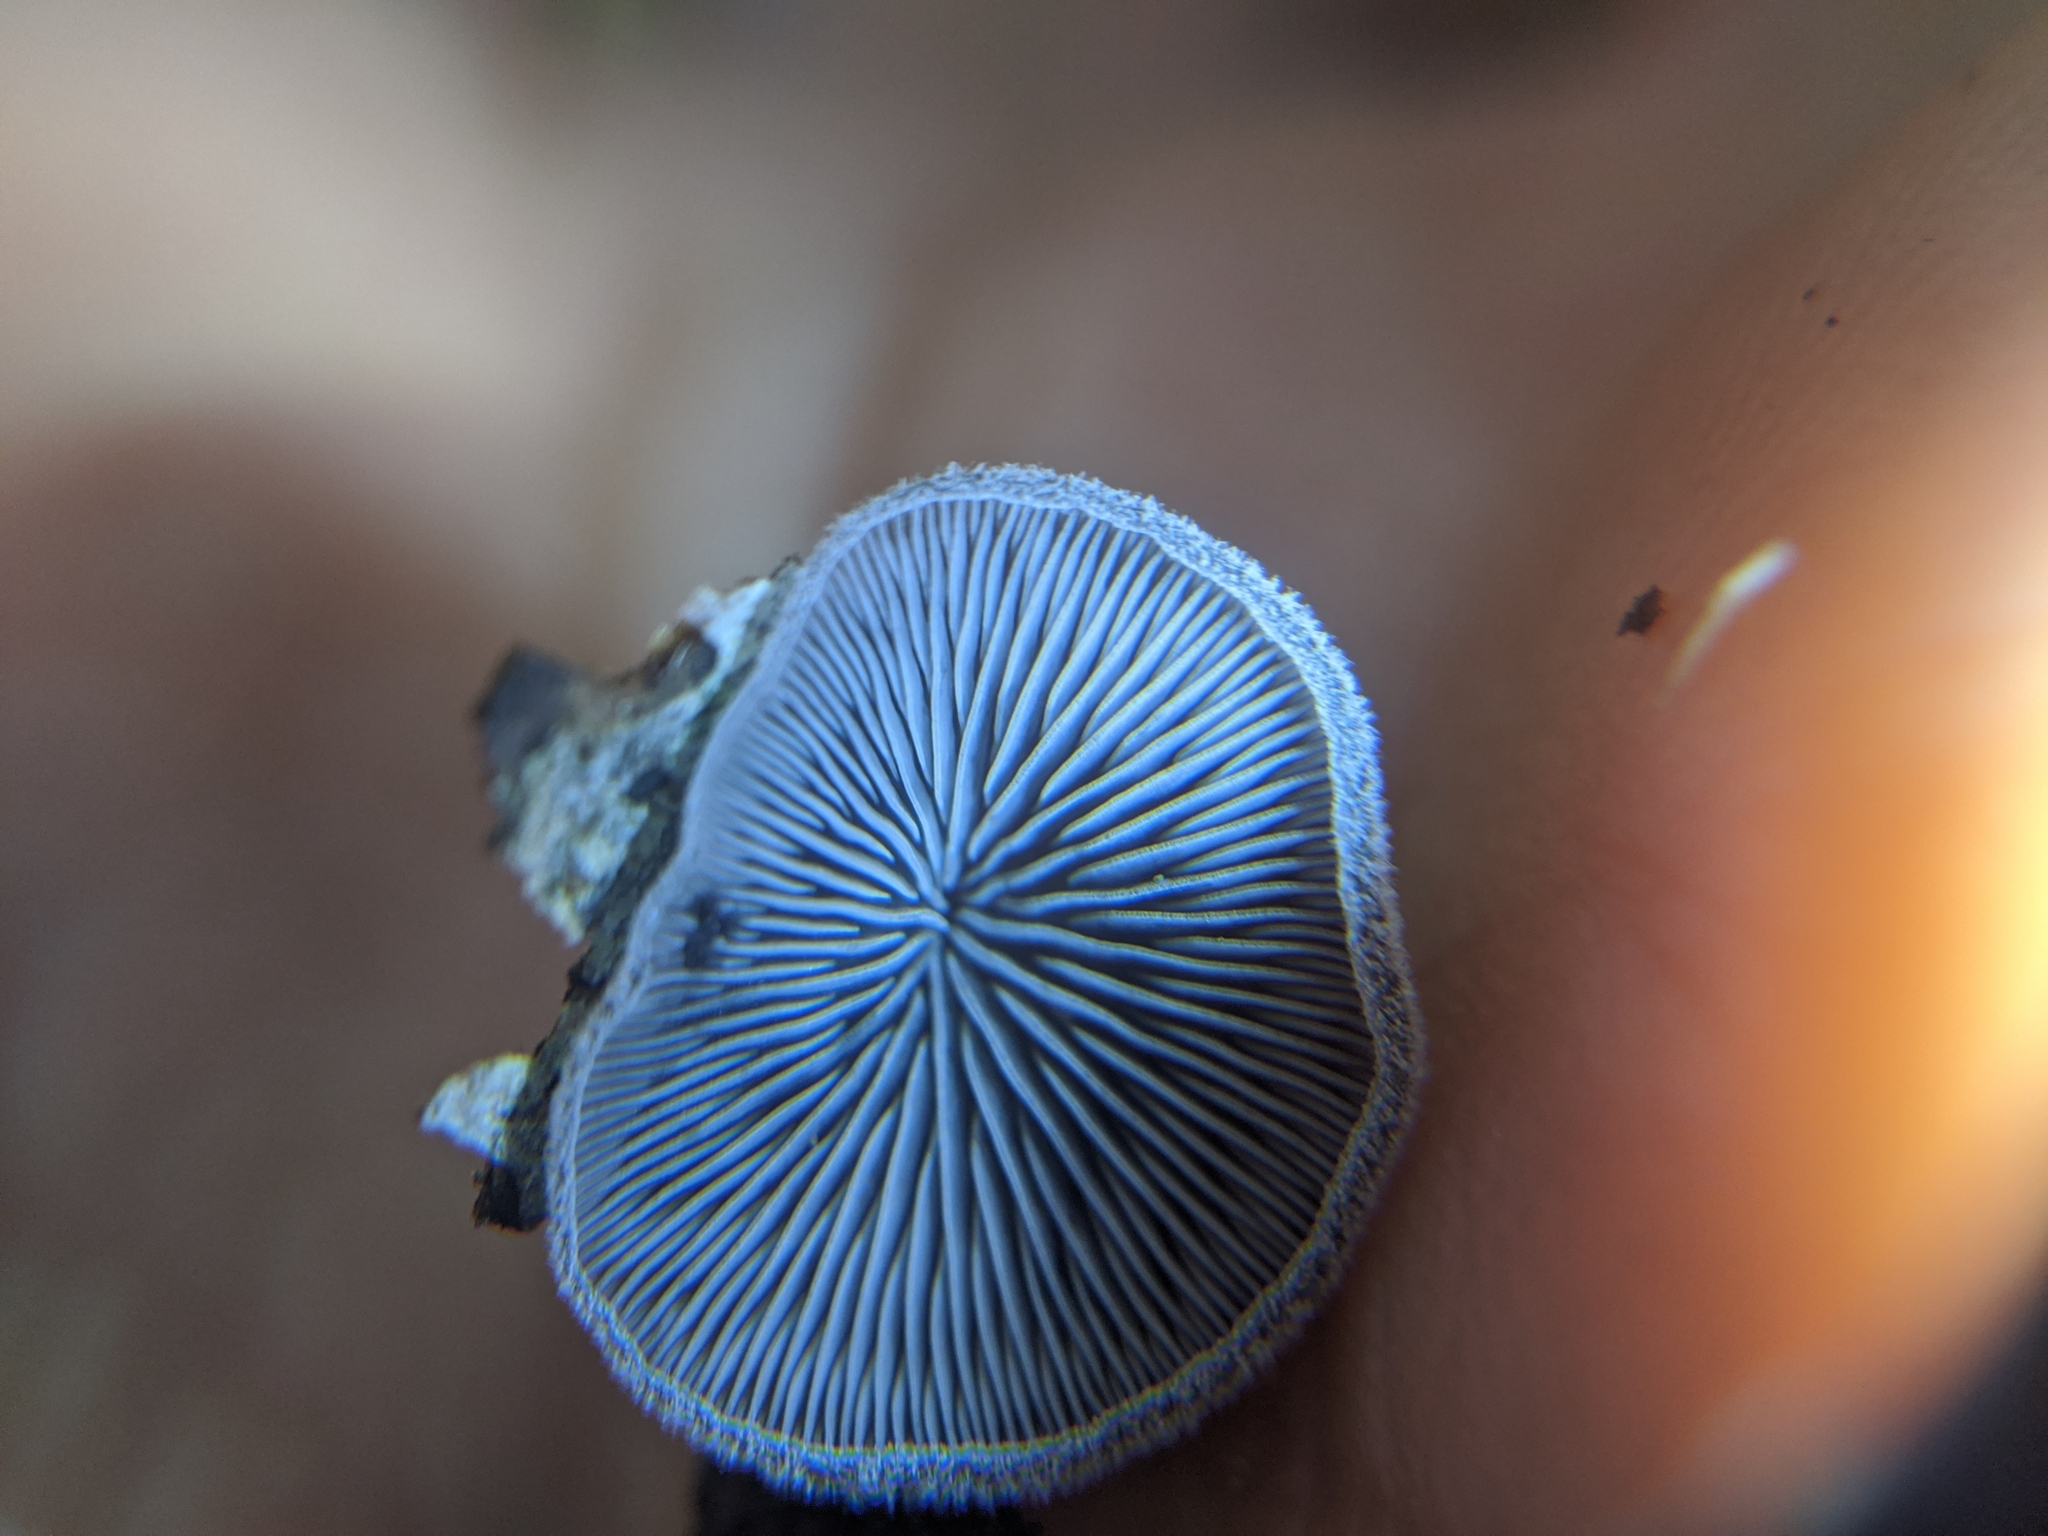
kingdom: Fungi
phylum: Basidiomycota
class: Agaricomycetes
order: Agaricales
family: Omphalotaceae
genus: Marasmiellus
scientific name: Marasmiellus violaceogriseus
